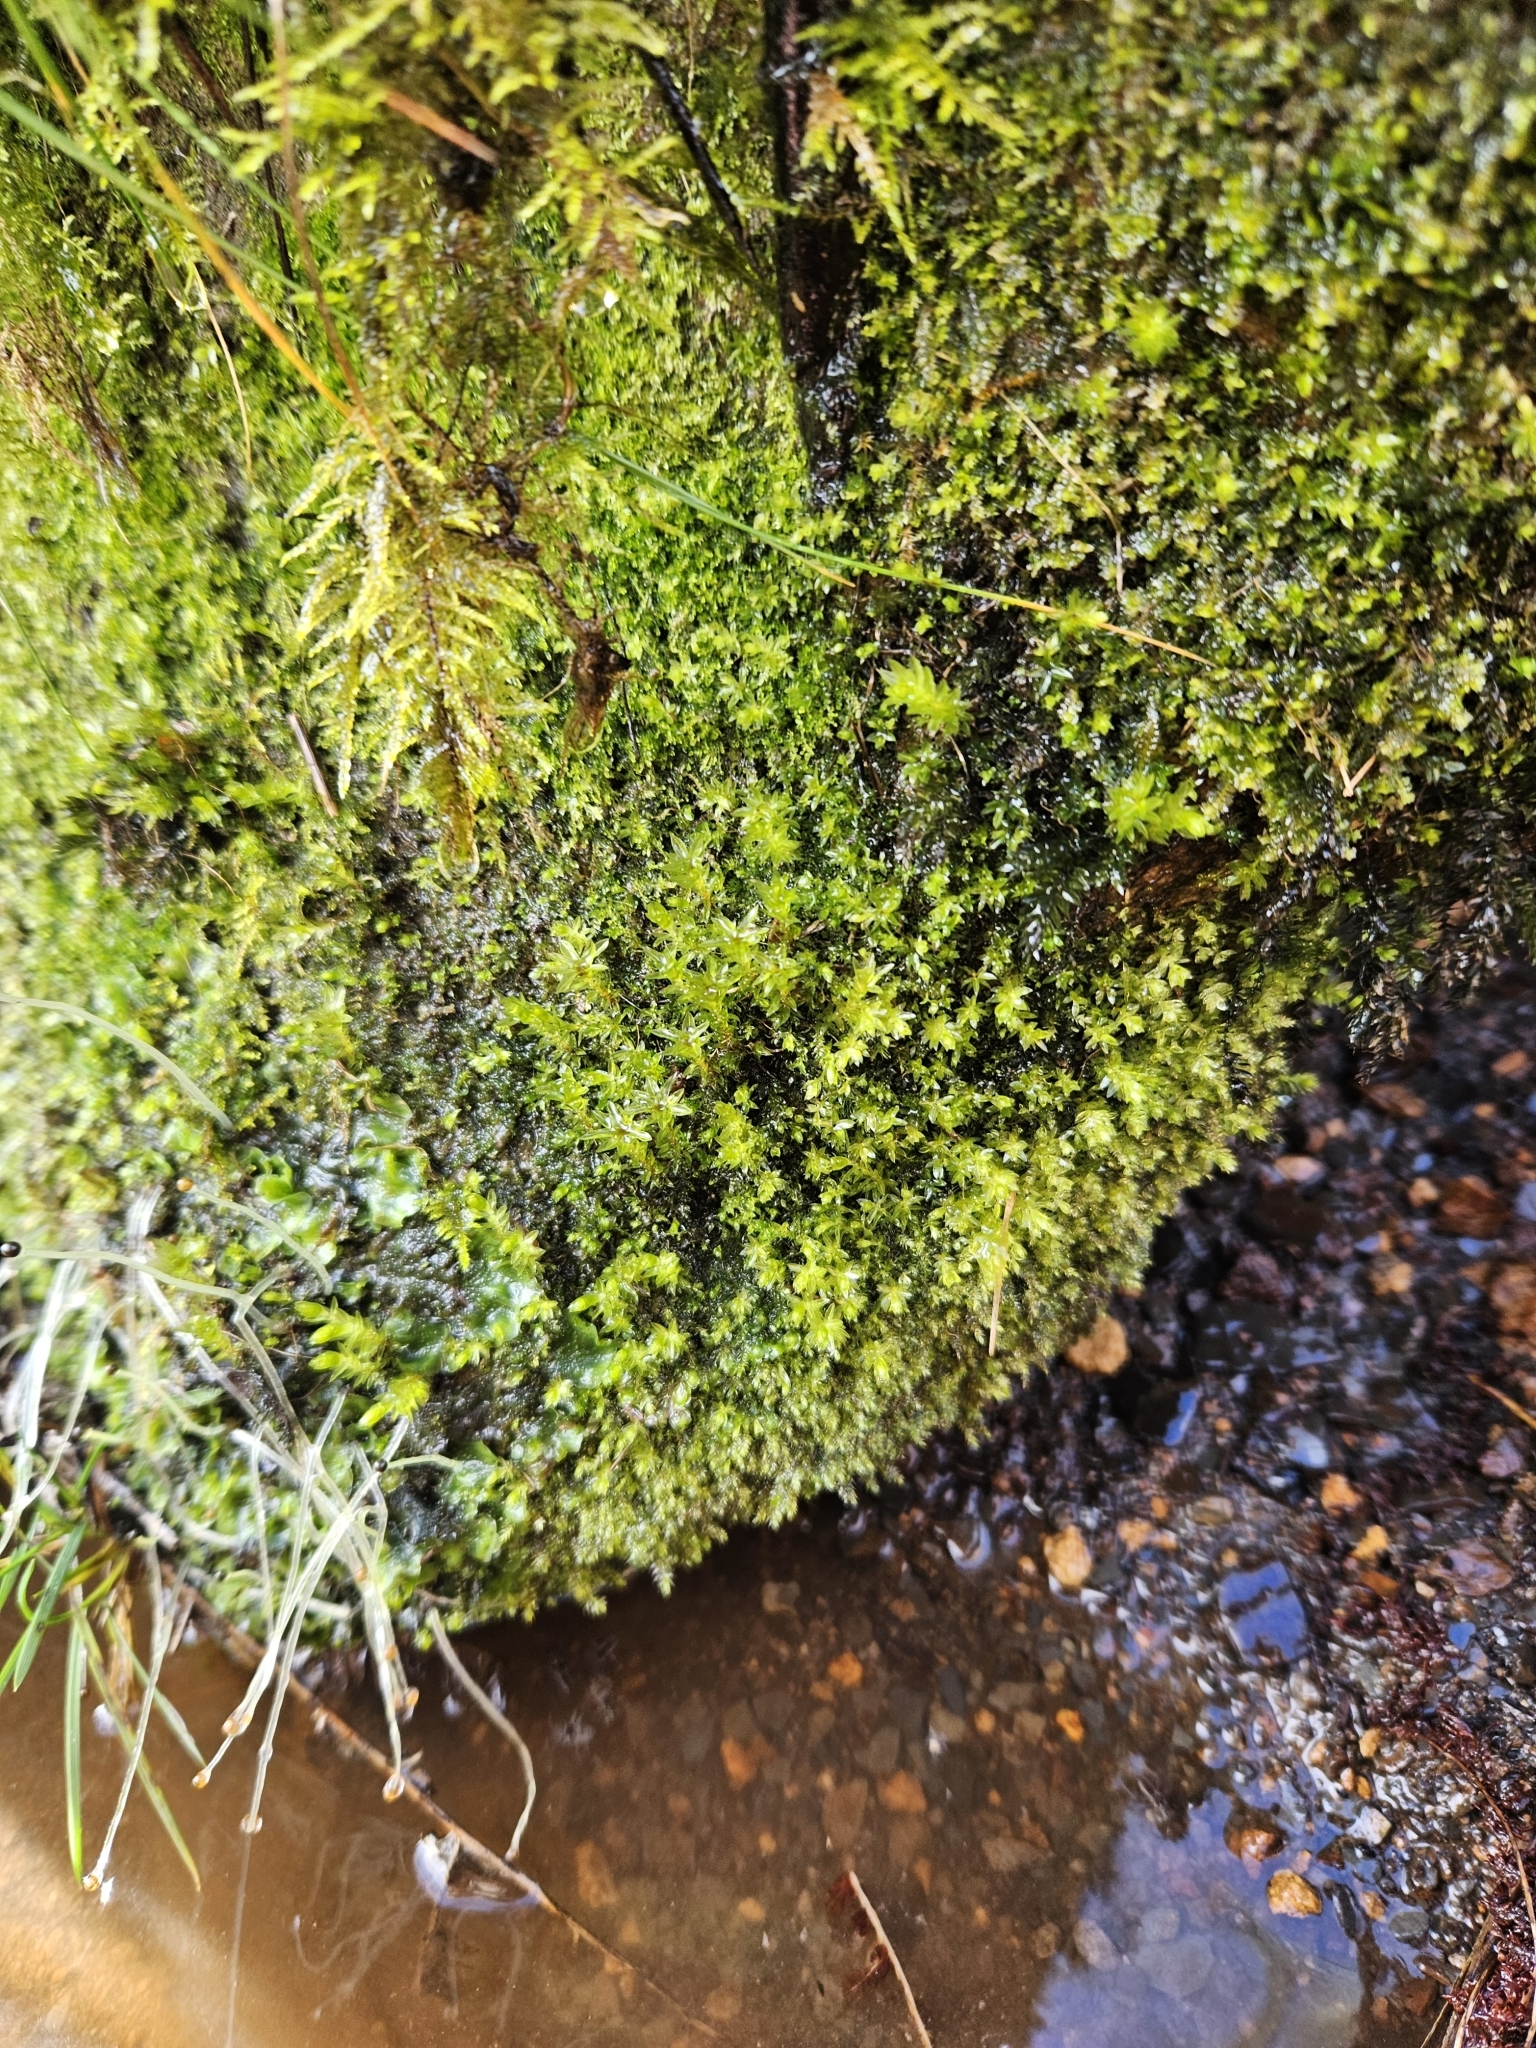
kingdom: Plantae
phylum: Bryophyta
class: Bryopsida
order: Bryales
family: Mniaceae
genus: Mnium
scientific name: Mnium hornum
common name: Swan's-neck leafy moss
